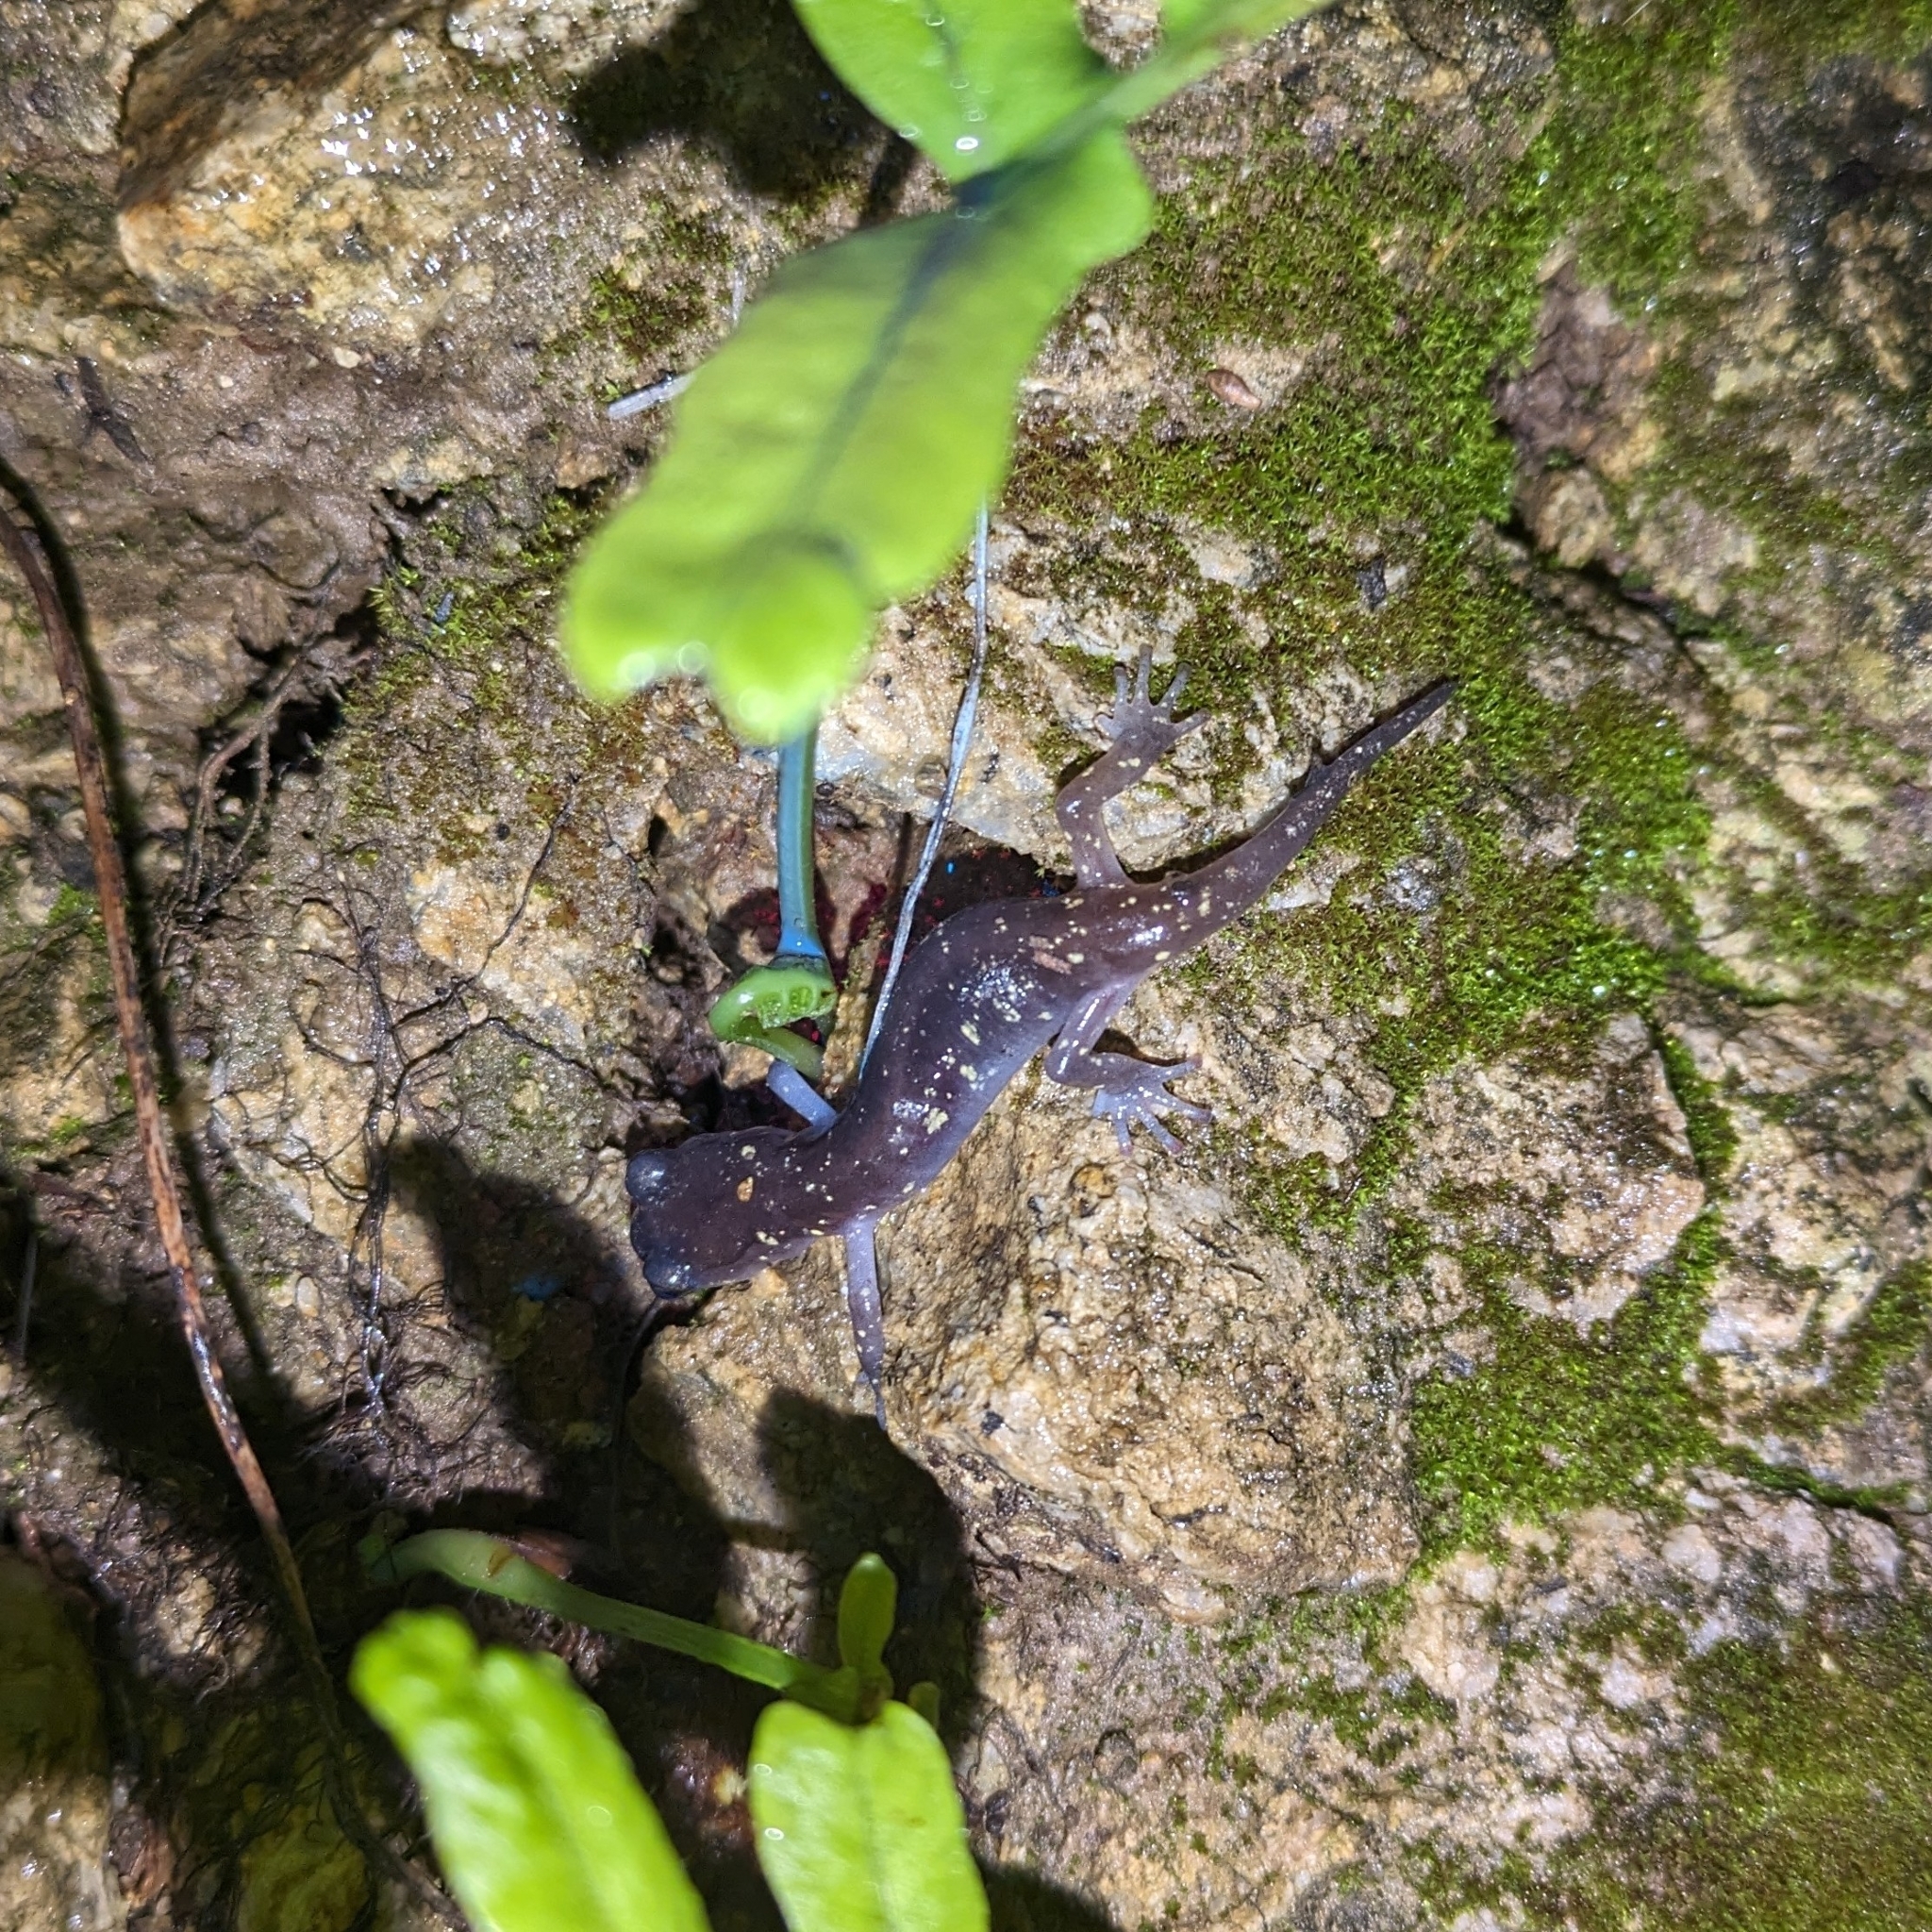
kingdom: Animalia
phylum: Chordata
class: Amphibia
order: Caudata
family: Plethodontidae
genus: Aneides
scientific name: Aneides lugubris
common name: Arboreal salamander
